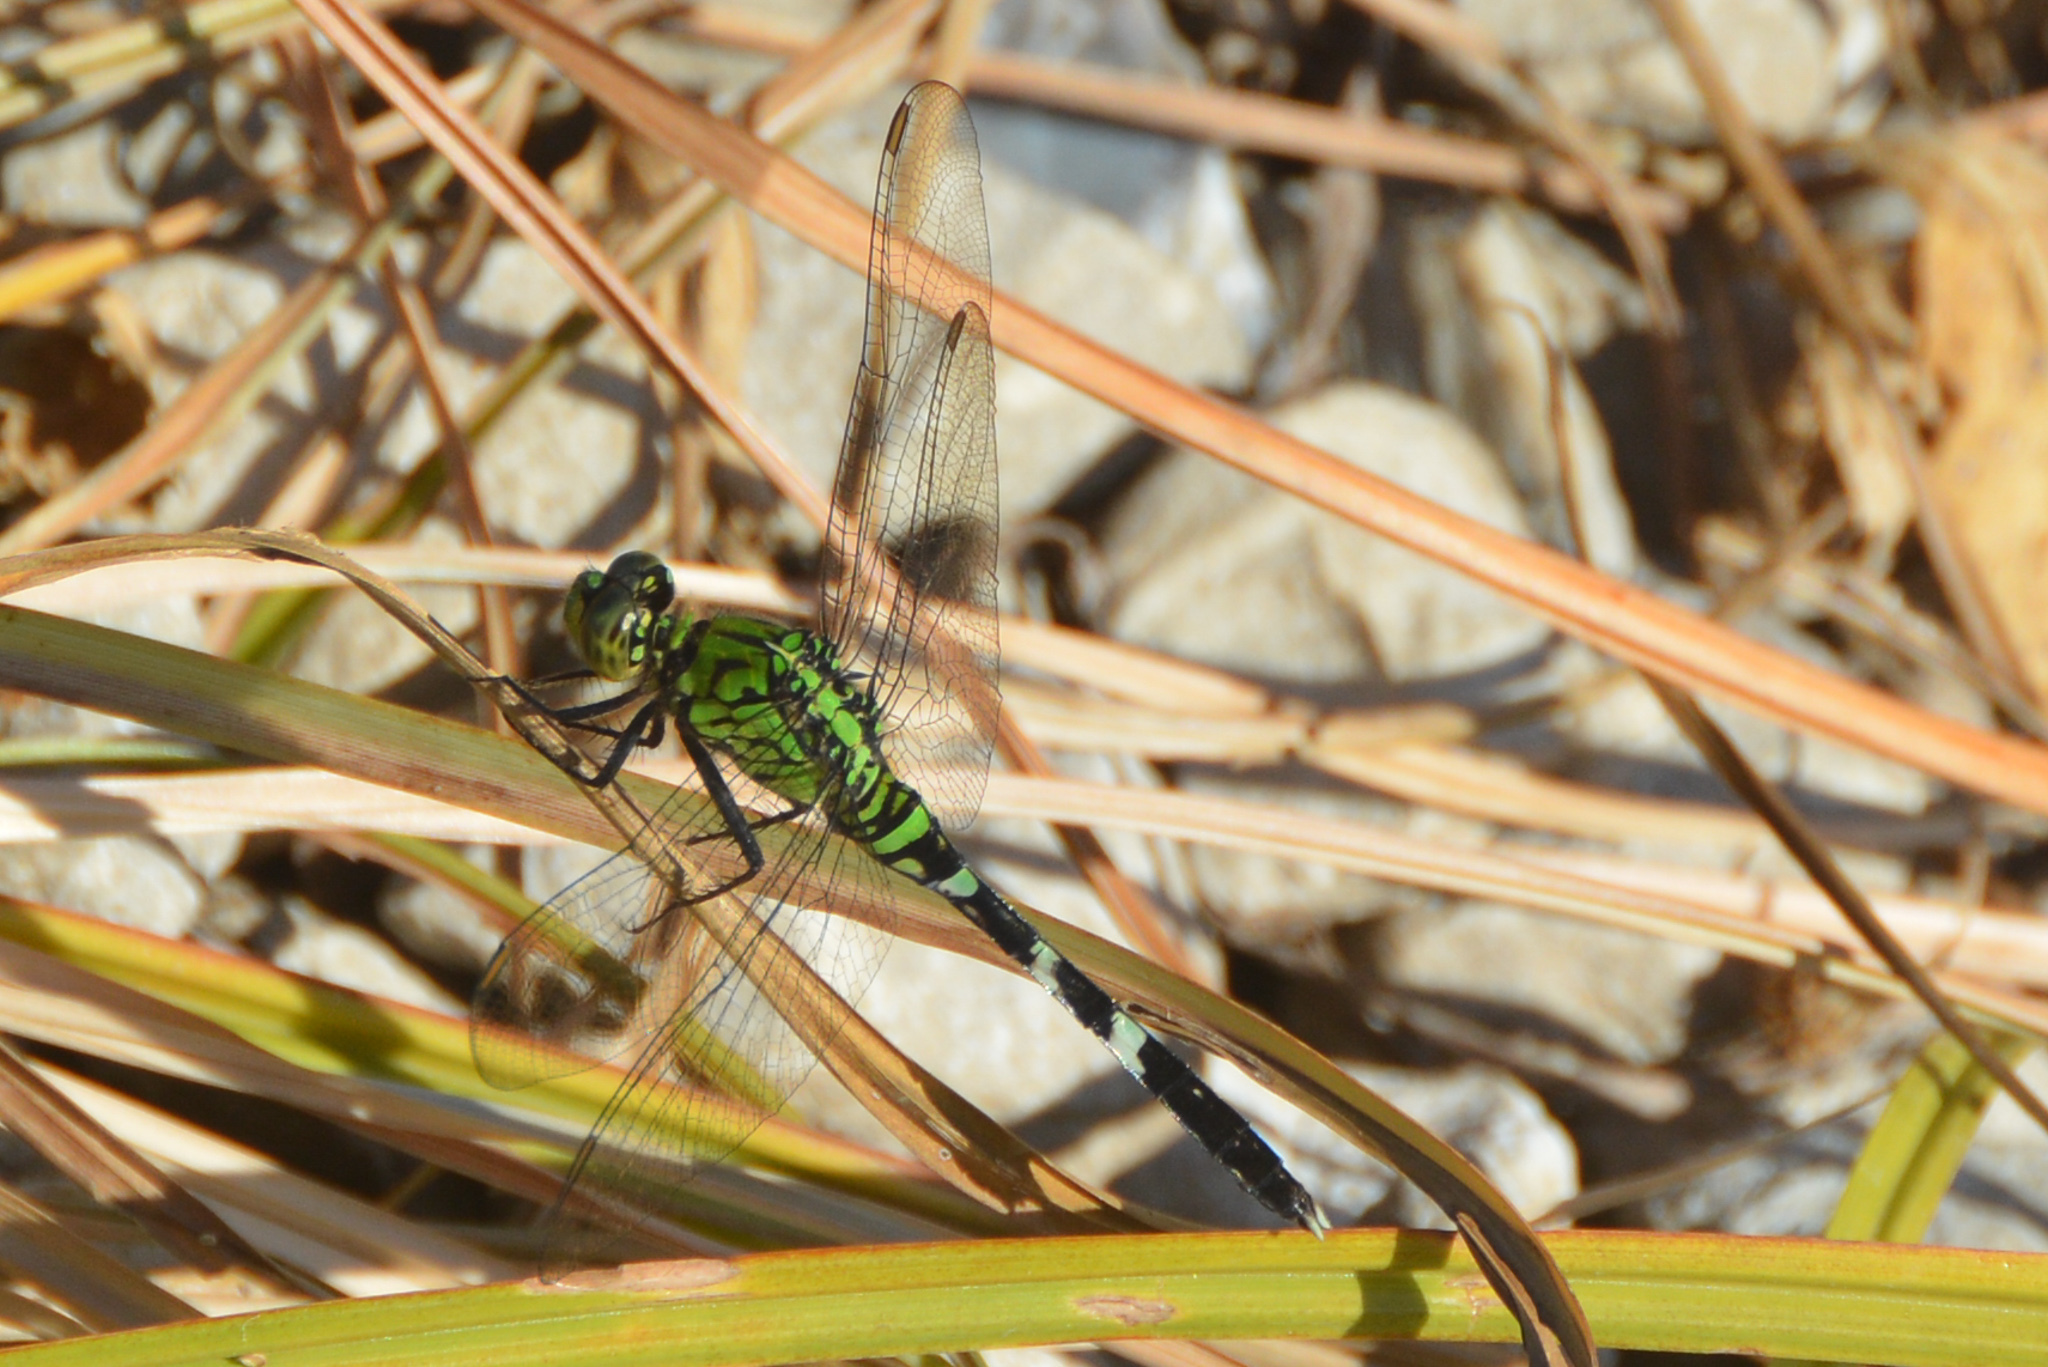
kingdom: Animalia
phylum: Arthropoda
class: Insecta
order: Odonata
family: Libellulidae
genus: Erythemis
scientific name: Erythemis simplicicollis
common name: Eastern pondhawk
